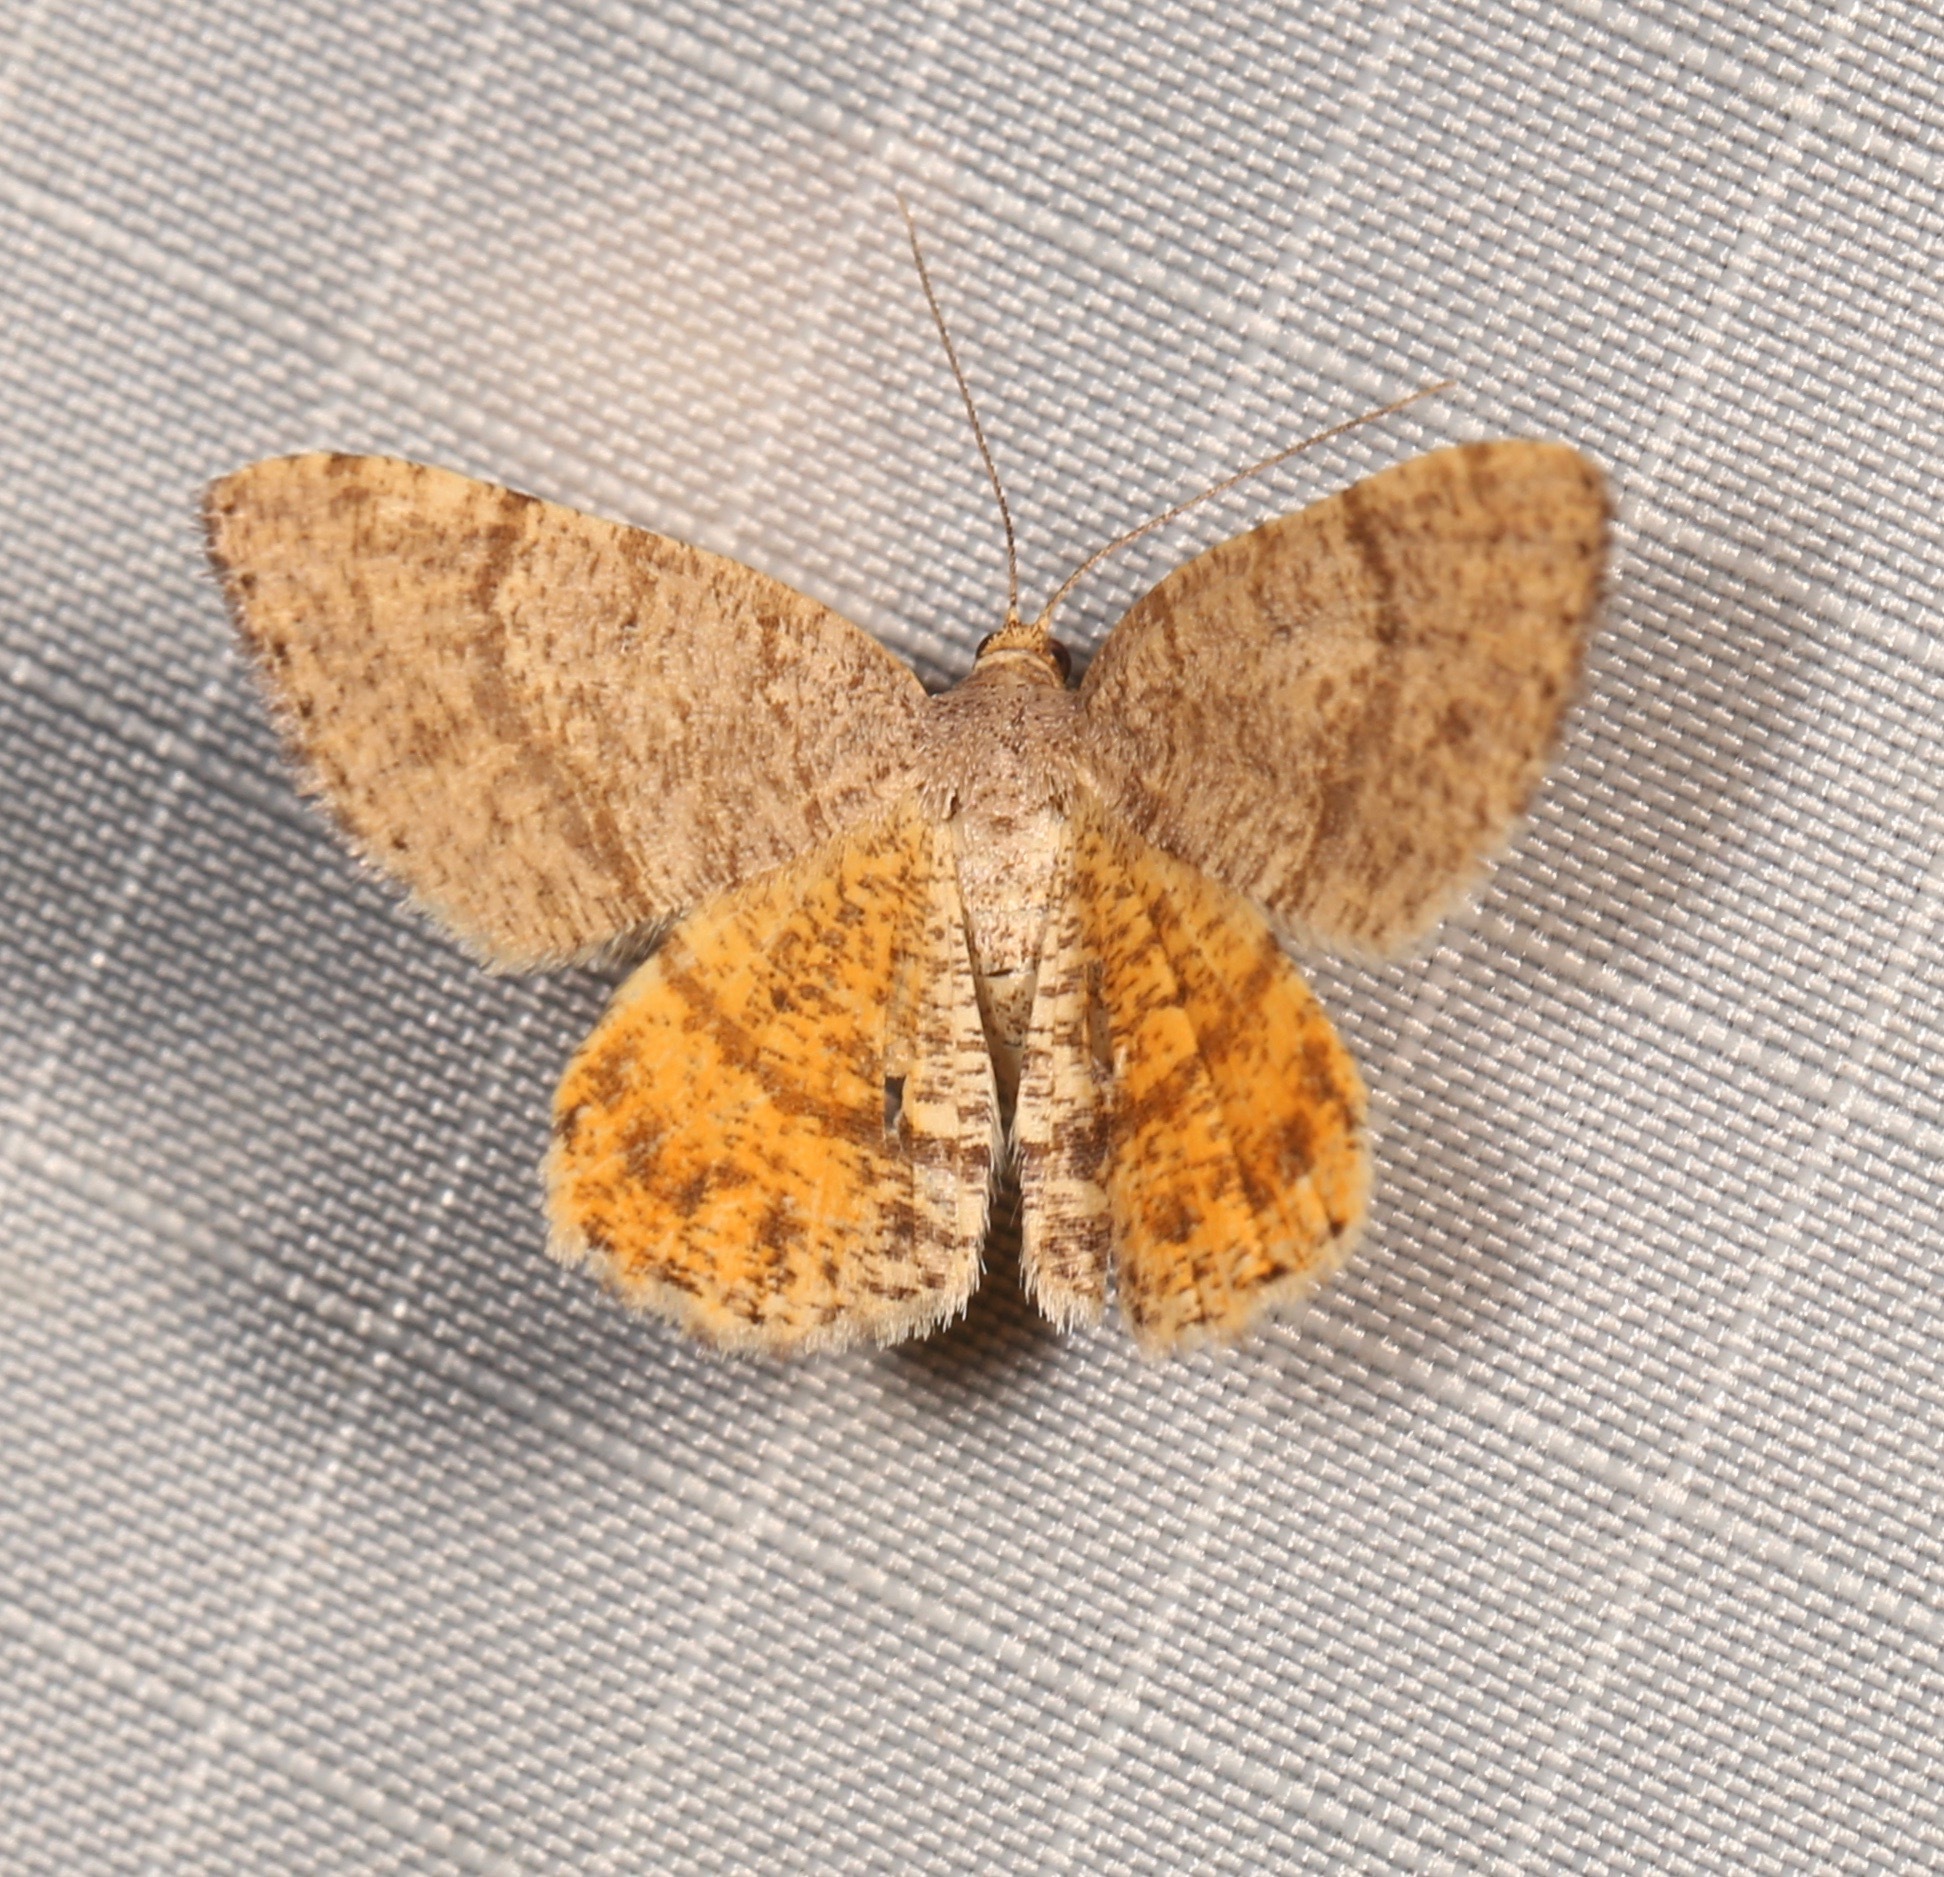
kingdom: Animalia
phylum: Arthropoda
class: Insecta
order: Lepidoptera
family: Geometridae
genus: Macaria
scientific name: Macaria inextricata
